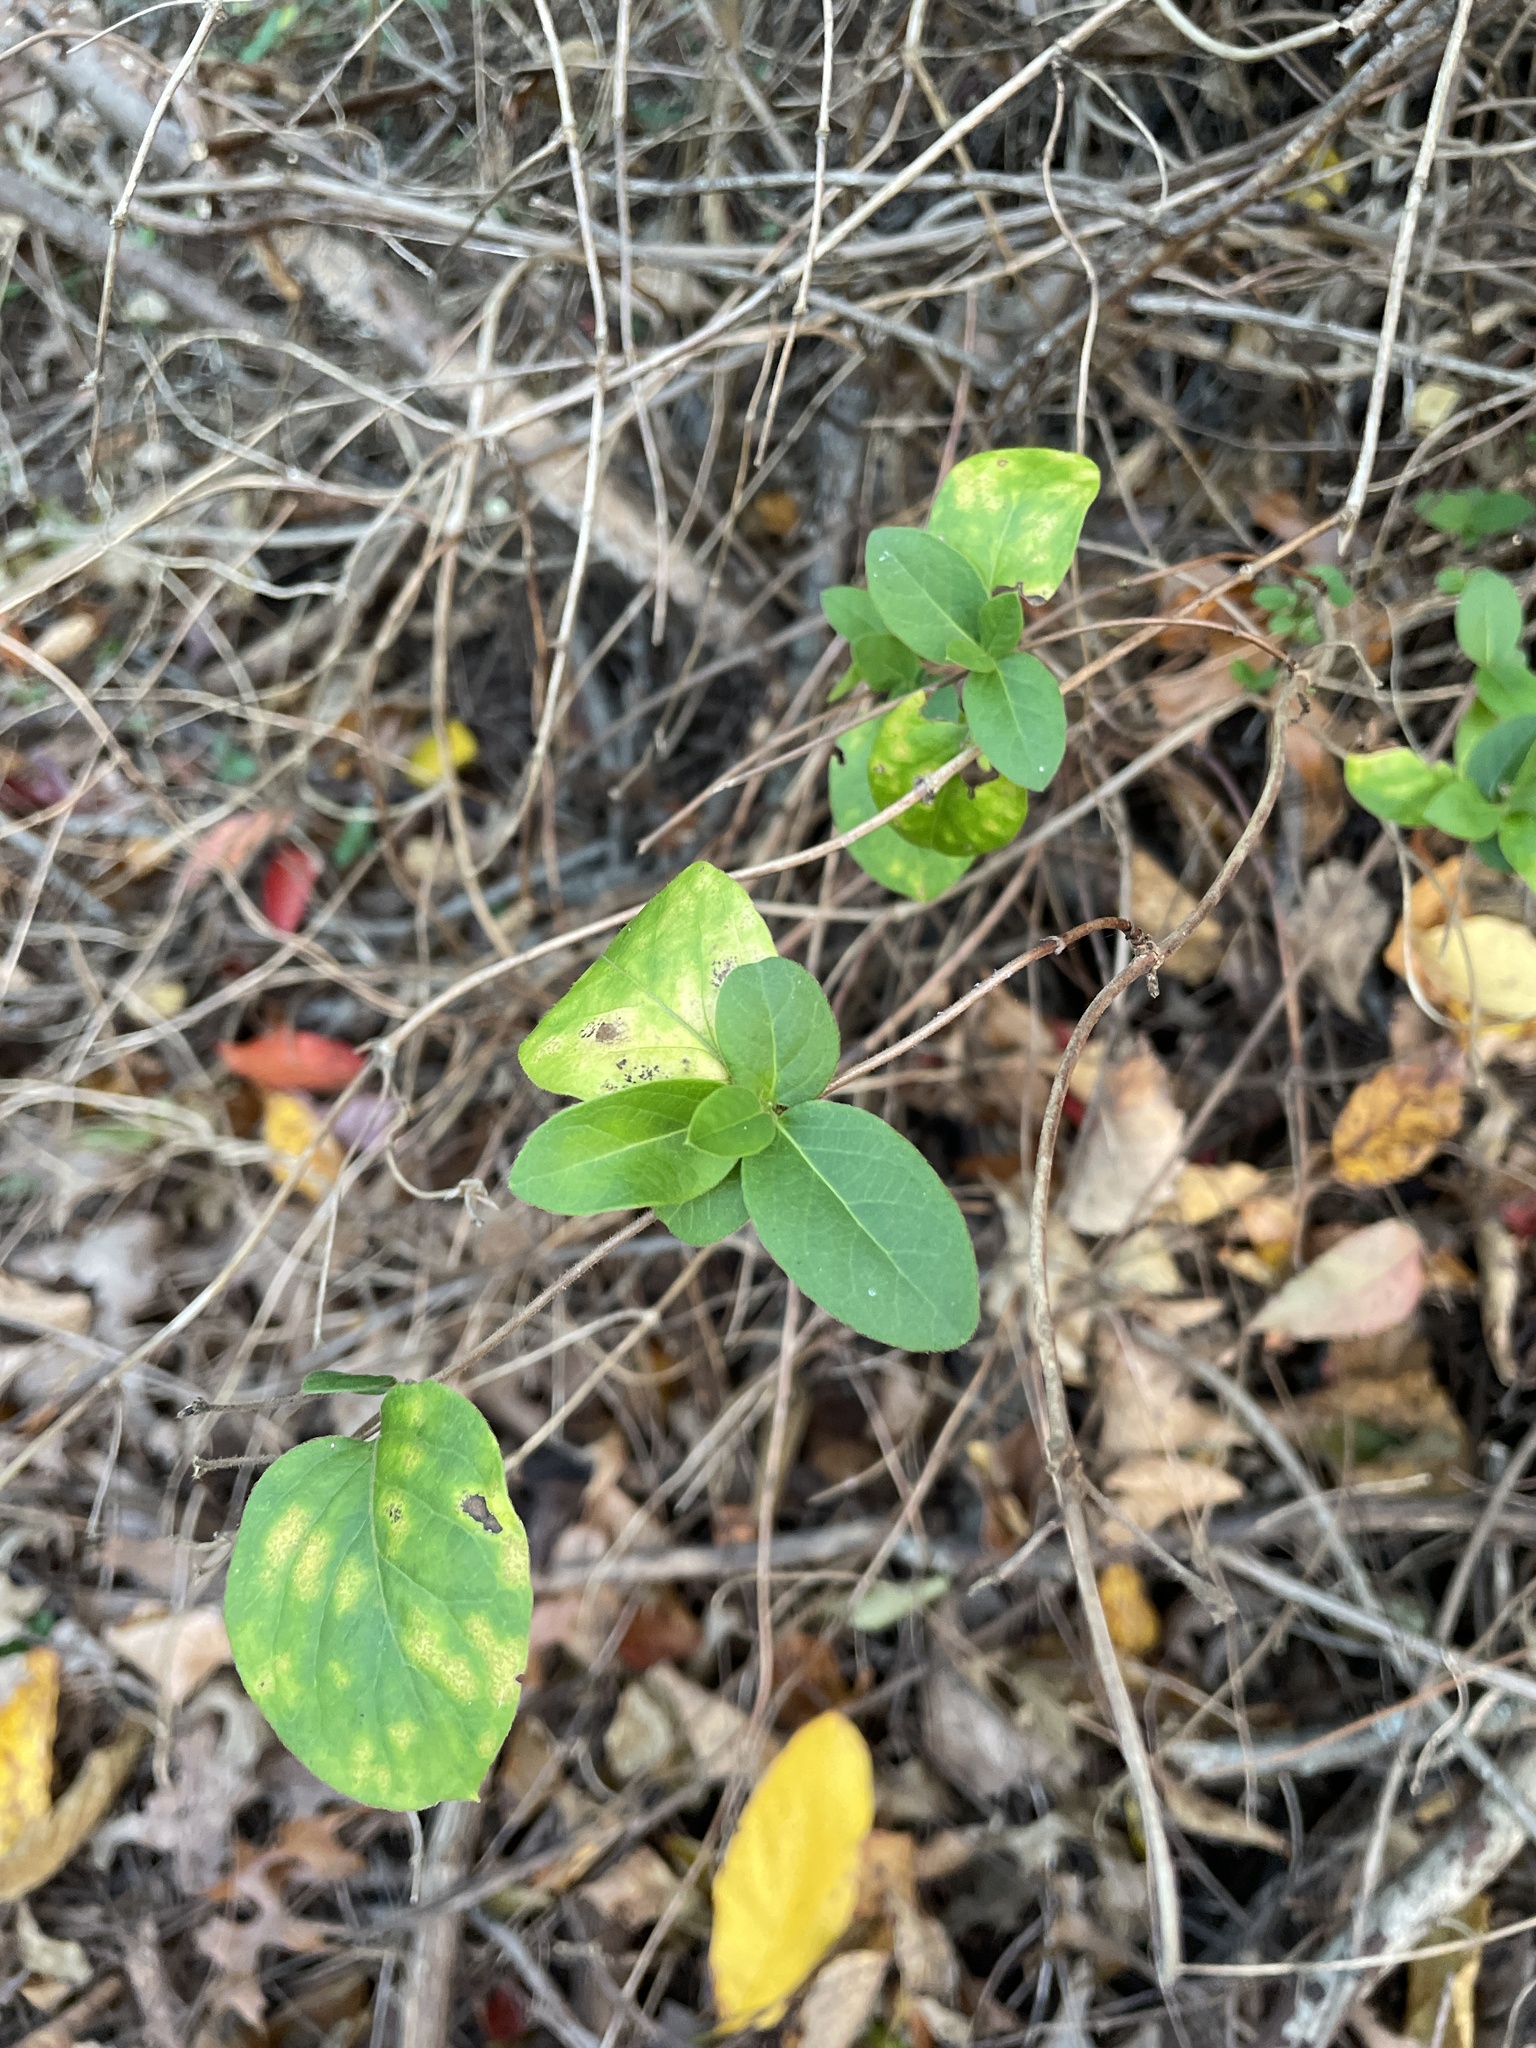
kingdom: Plantae
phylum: Tracheophyta
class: Magnoliopsida
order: Dipsacales
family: Caprifoliaceae
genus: Lonicera
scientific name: Lonicera japonica
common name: Japanese honeysuckle
